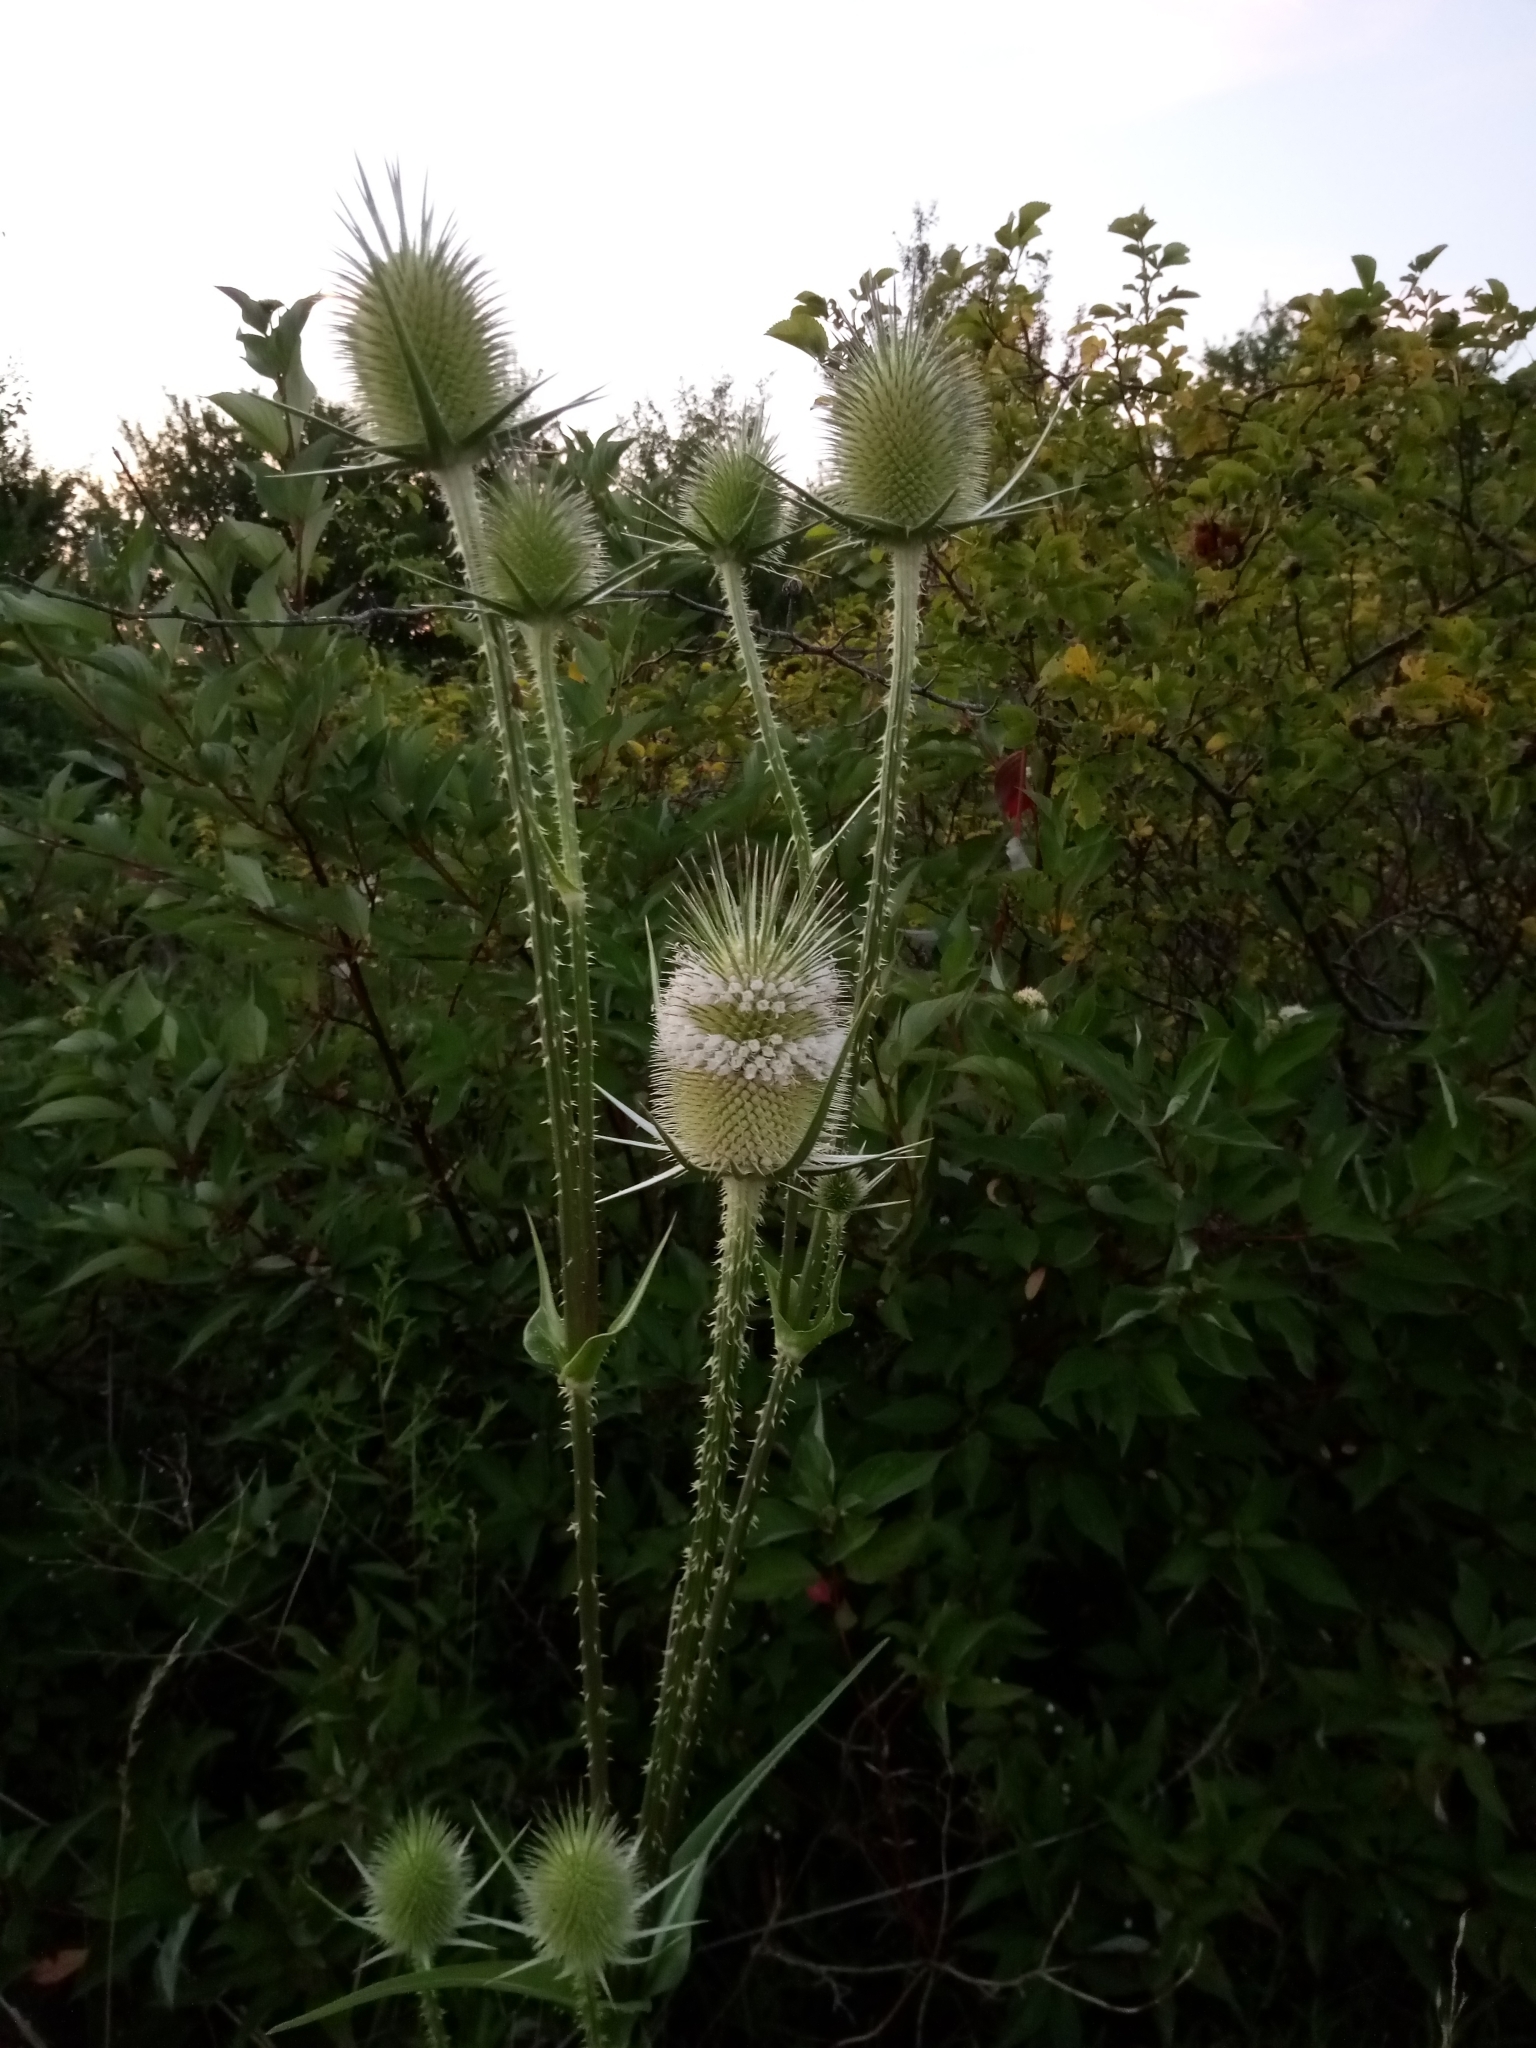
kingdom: Plantae
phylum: Tracheophyta
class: Magnoliopsida
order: Dipsacales
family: Caprifoliaceae
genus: Dipsacus
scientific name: Dipsacus laciniatus
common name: Cut-leaved teasel
